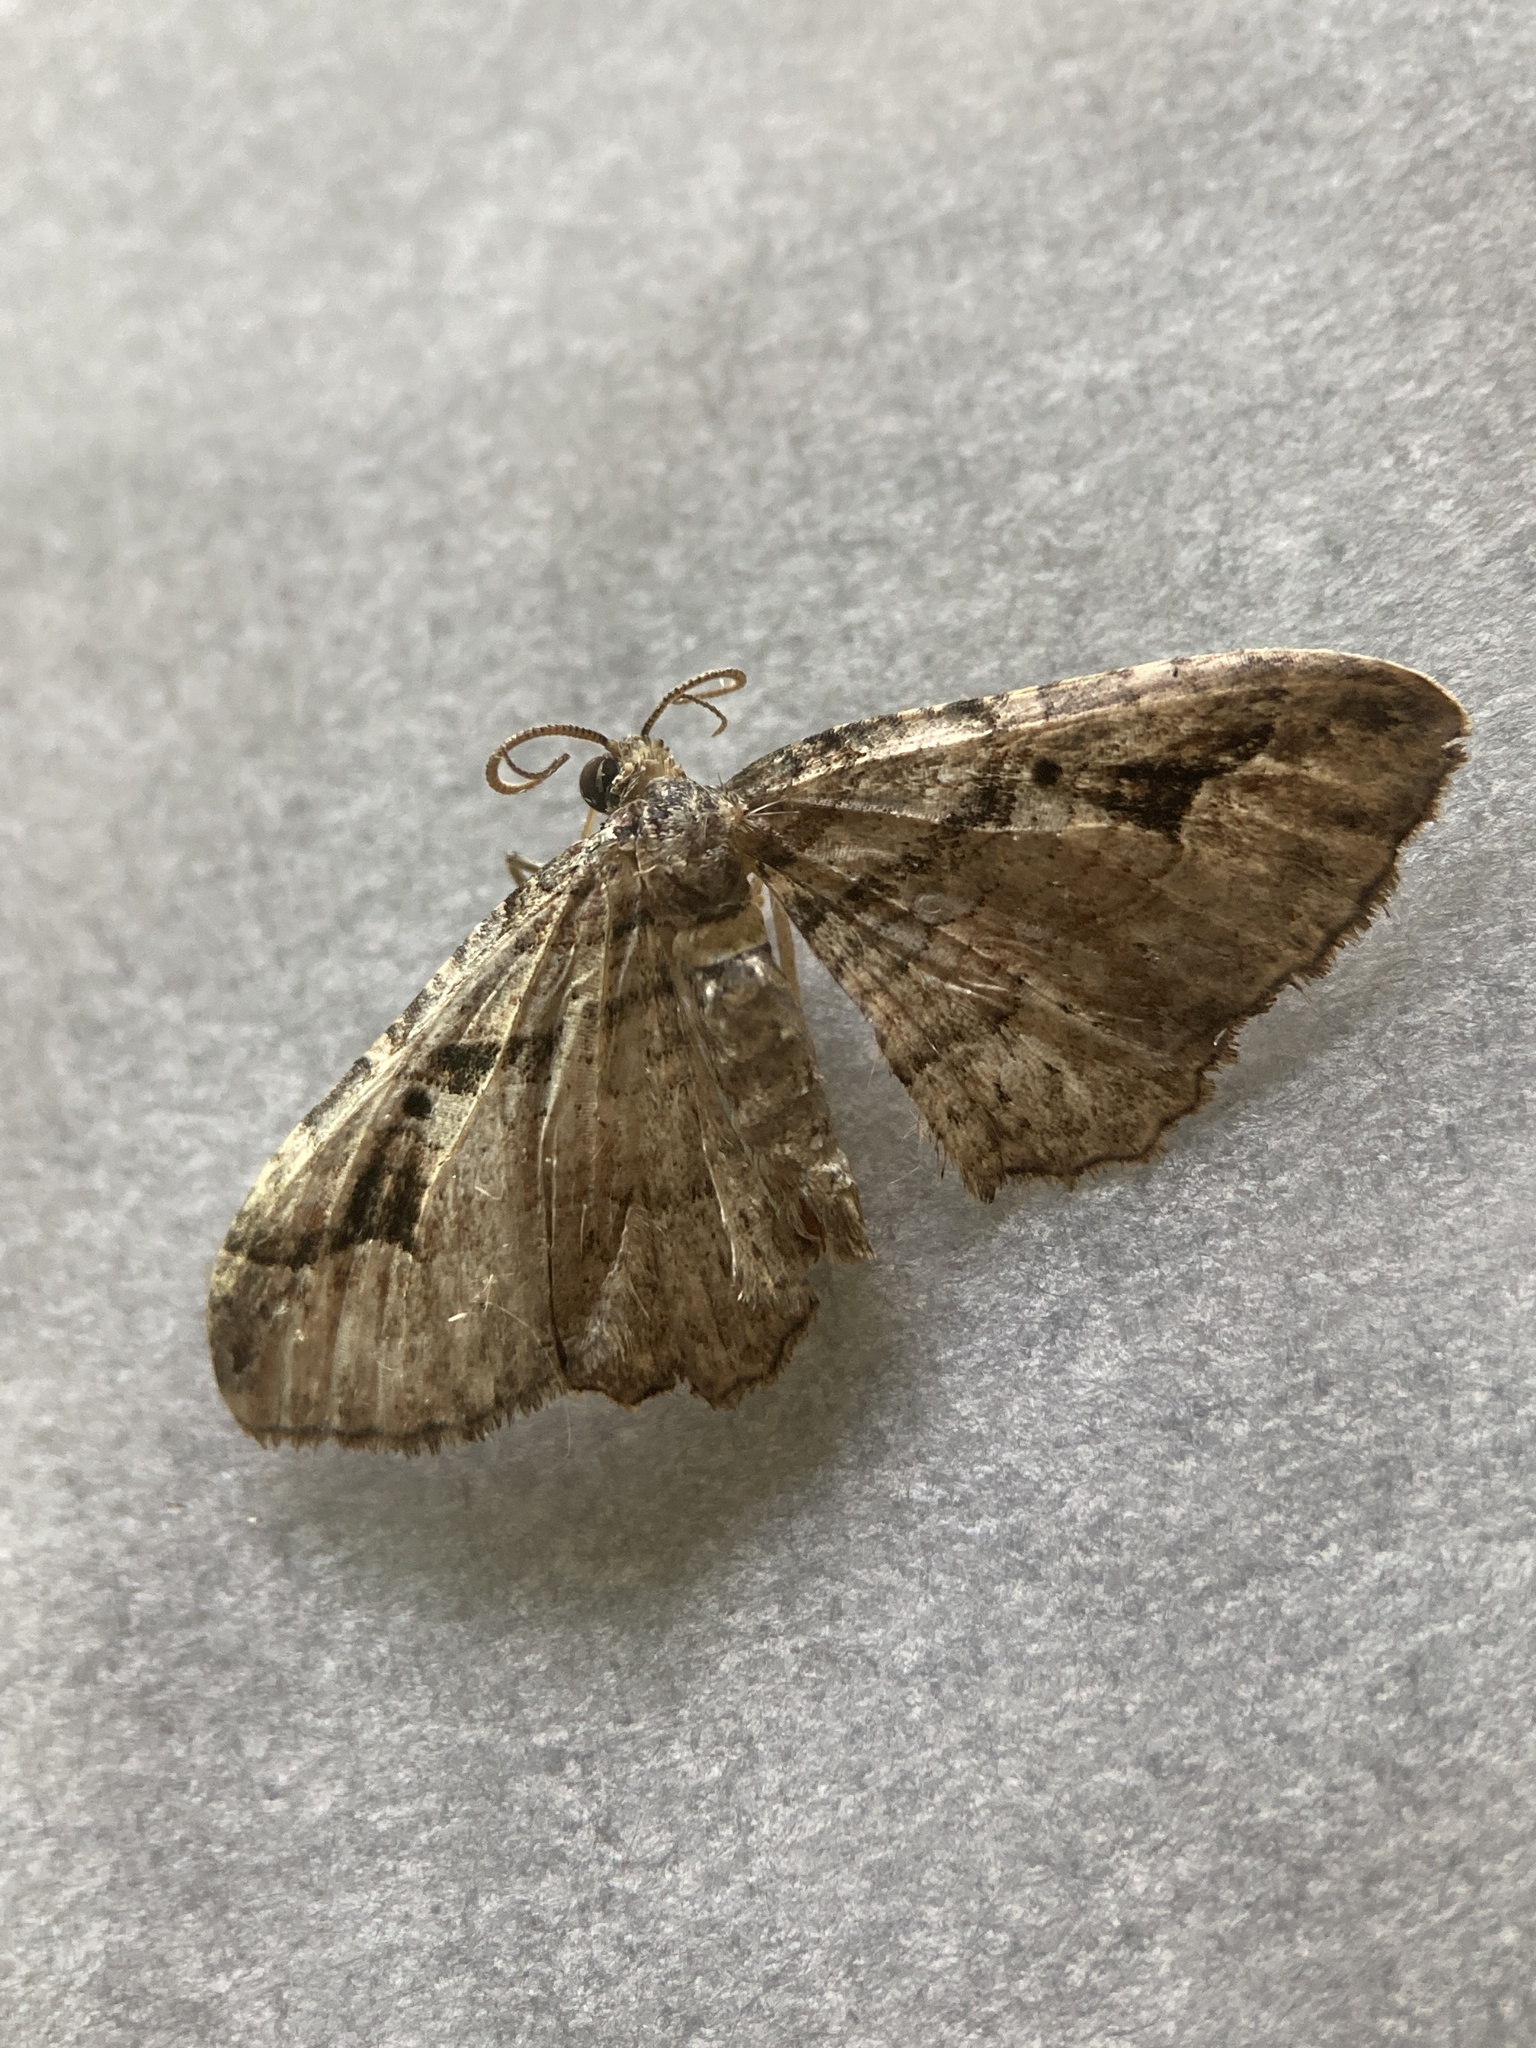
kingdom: Animalia
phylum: Arthropoda
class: Insecta
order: Lepidoptera
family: Geometridae
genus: Costaconvexa
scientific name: Costaconvexa centrostrigaria
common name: Bent-line carpet
